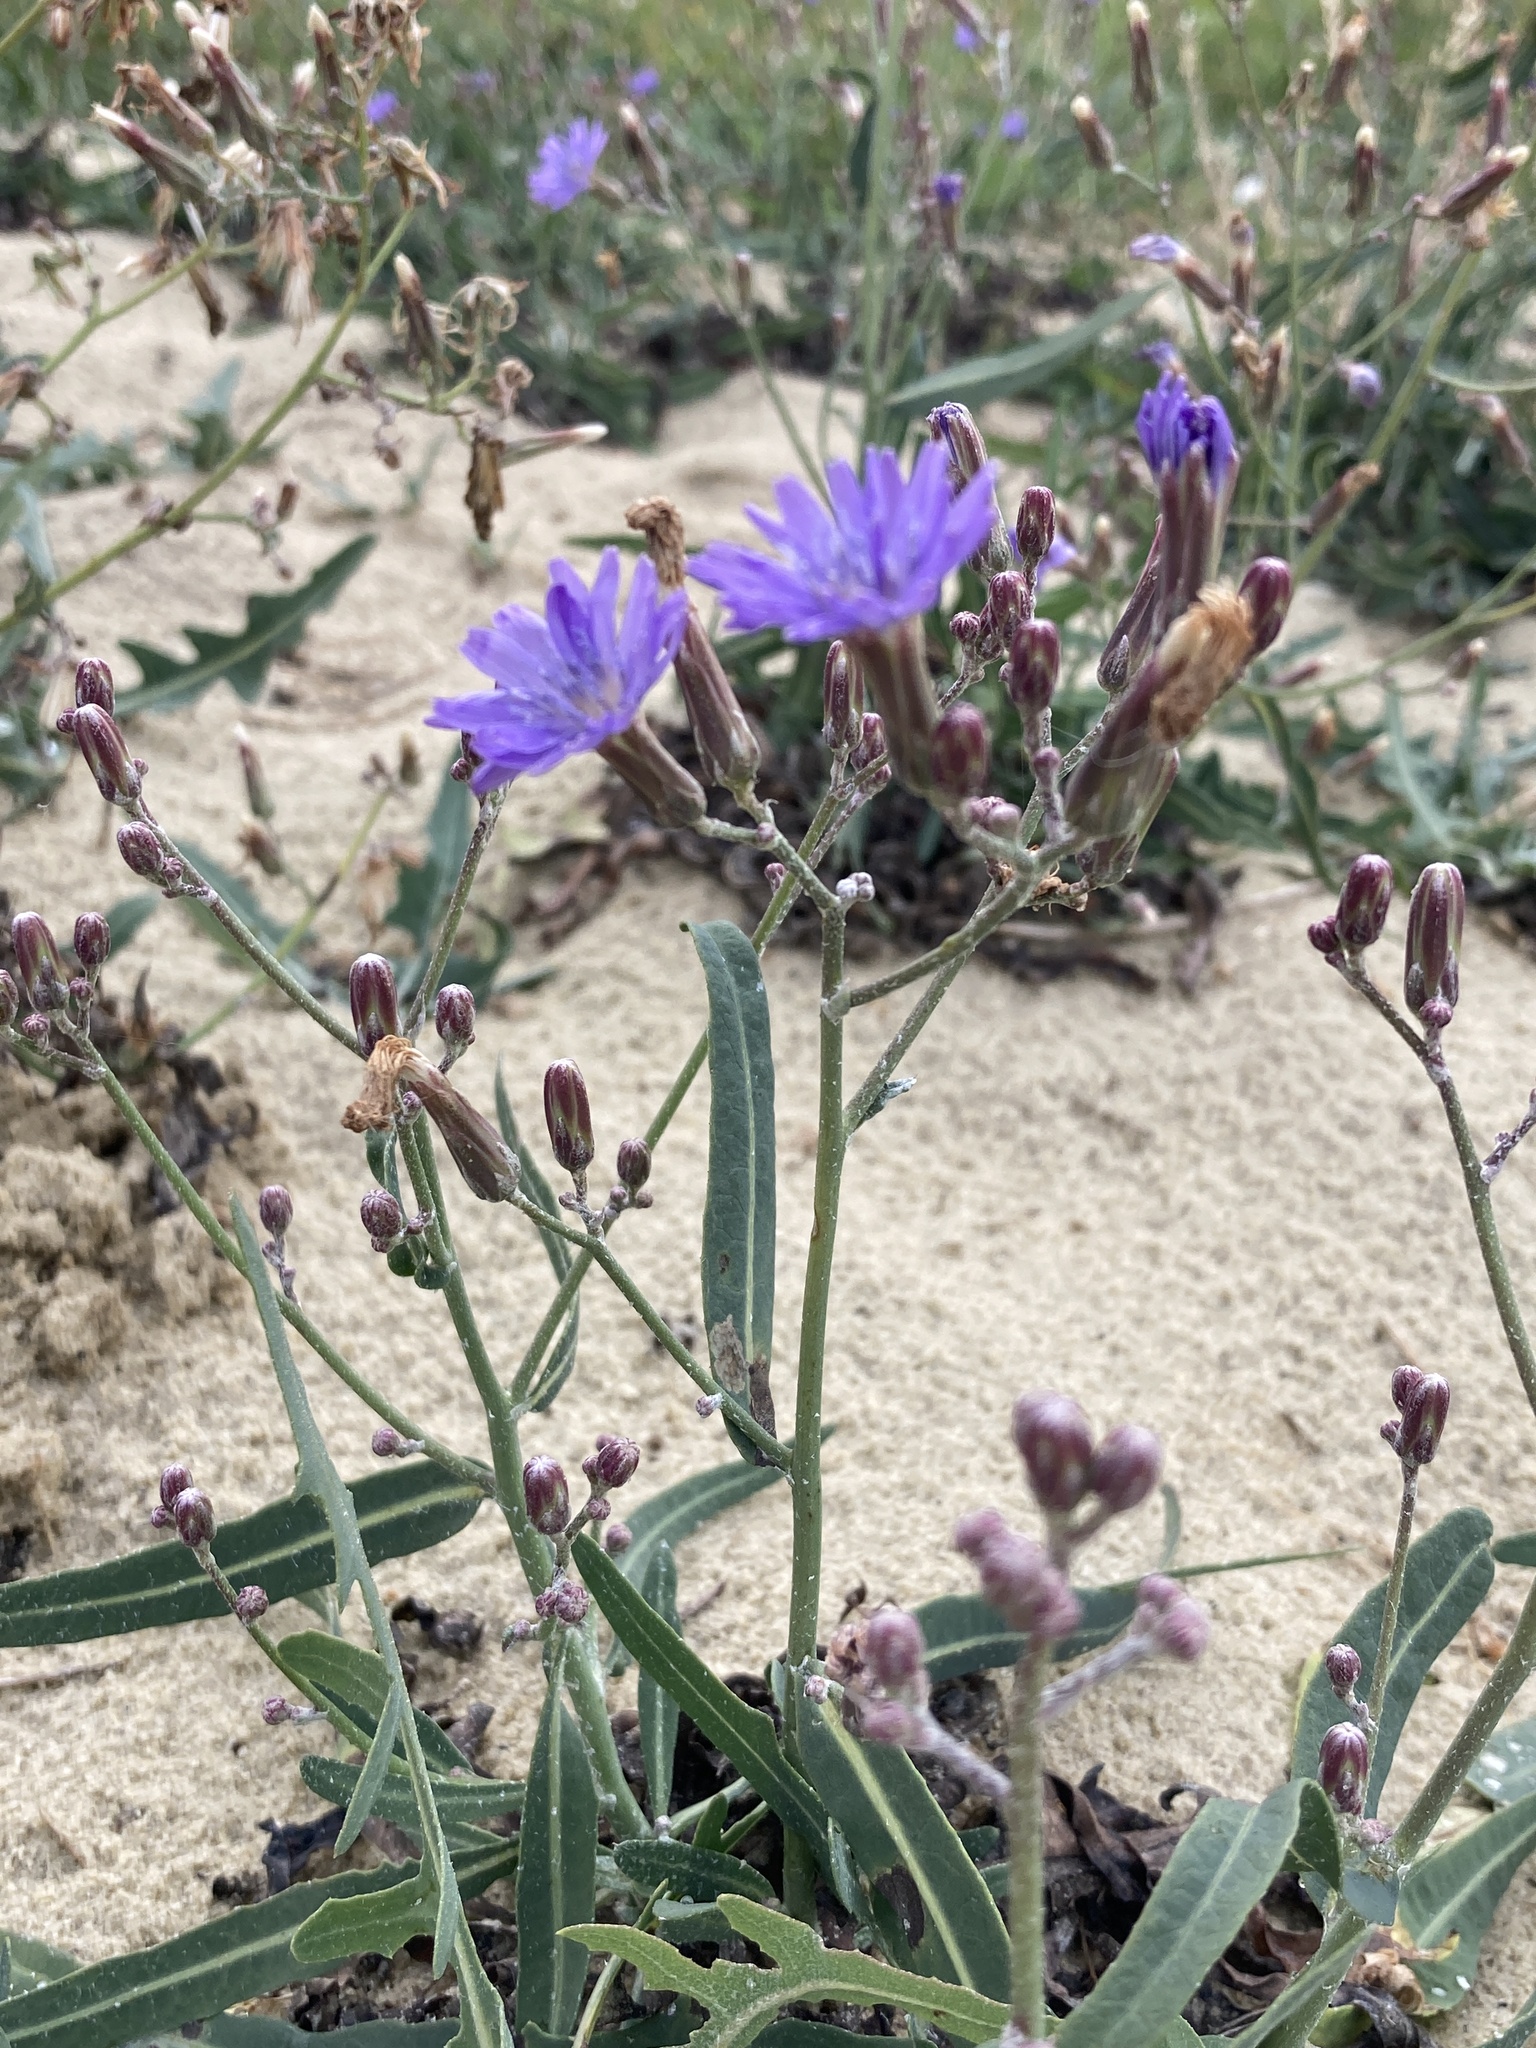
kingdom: Plantae
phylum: Tracheophyta
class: Magnoliopsida
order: Asterales
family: Asteraceae
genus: Lactuca
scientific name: Lactuca tatarica
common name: Blue lettuce
